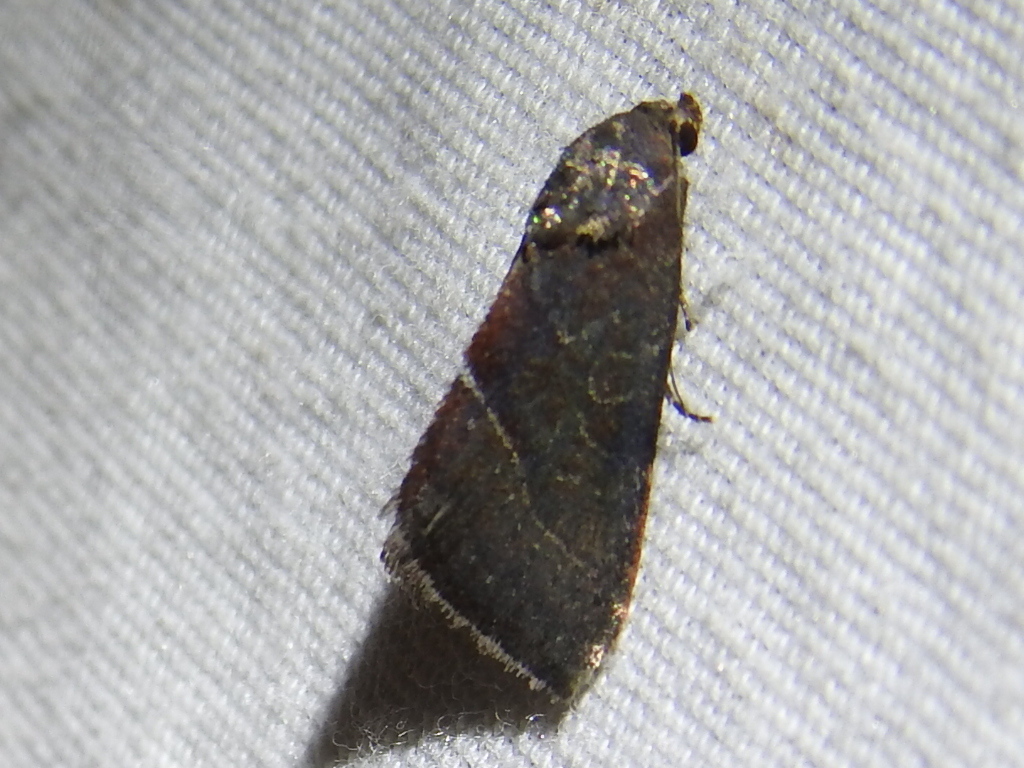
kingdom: Animalia
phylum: Arthropoda
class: Insecta
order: Lepidoptera
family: Noctuidae
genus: Galgula
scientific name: Galgula partita
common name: Wedgeling
